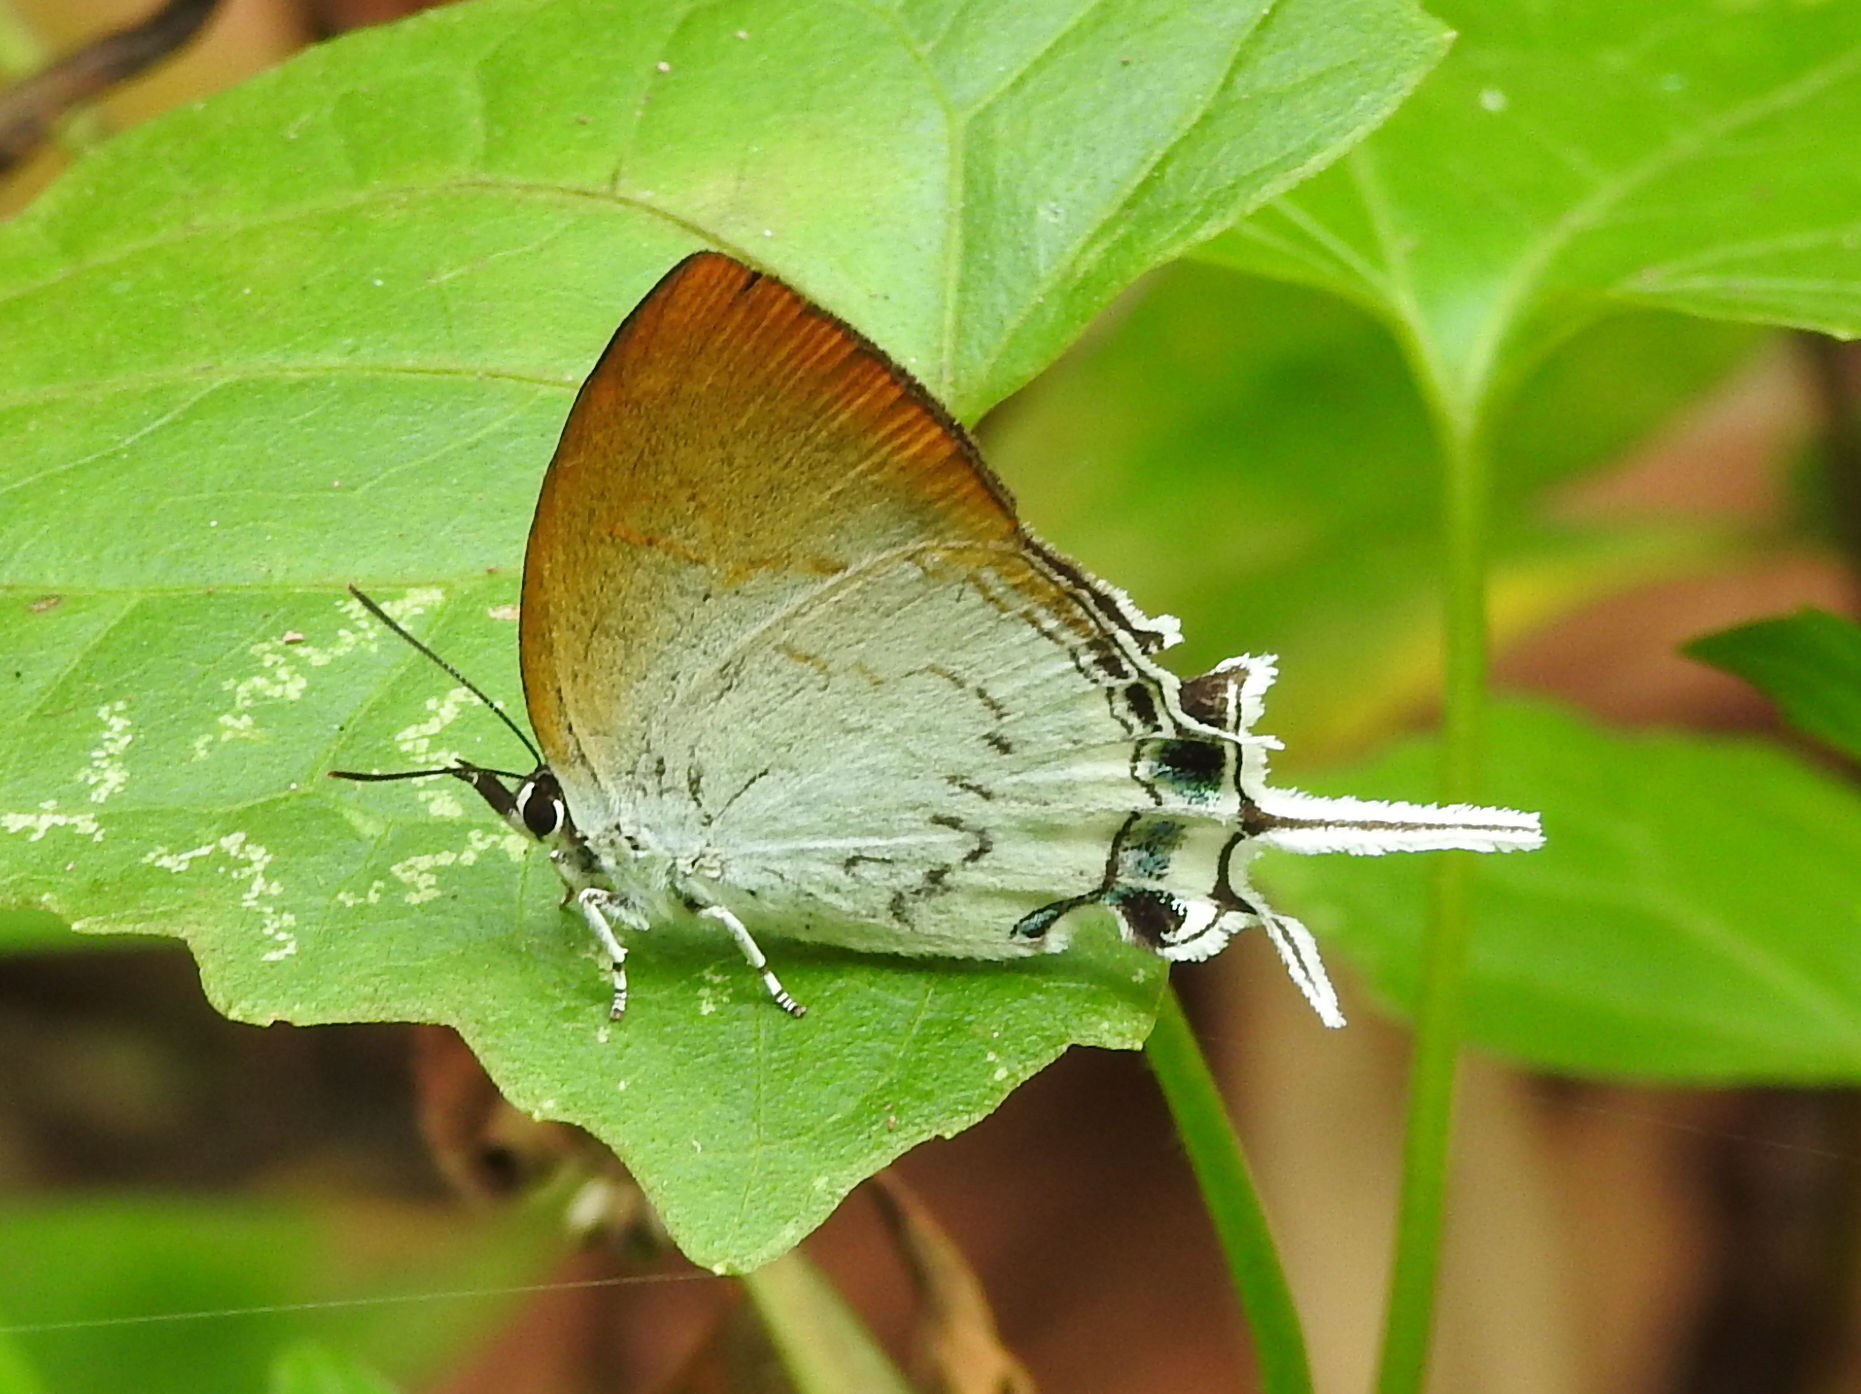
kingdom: Animalia
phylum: Arthropoda
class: Insecta
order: Lepidoptera
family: Lycaenidae
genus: Cheritra
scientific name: Cheritra freja
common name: Common imperial
